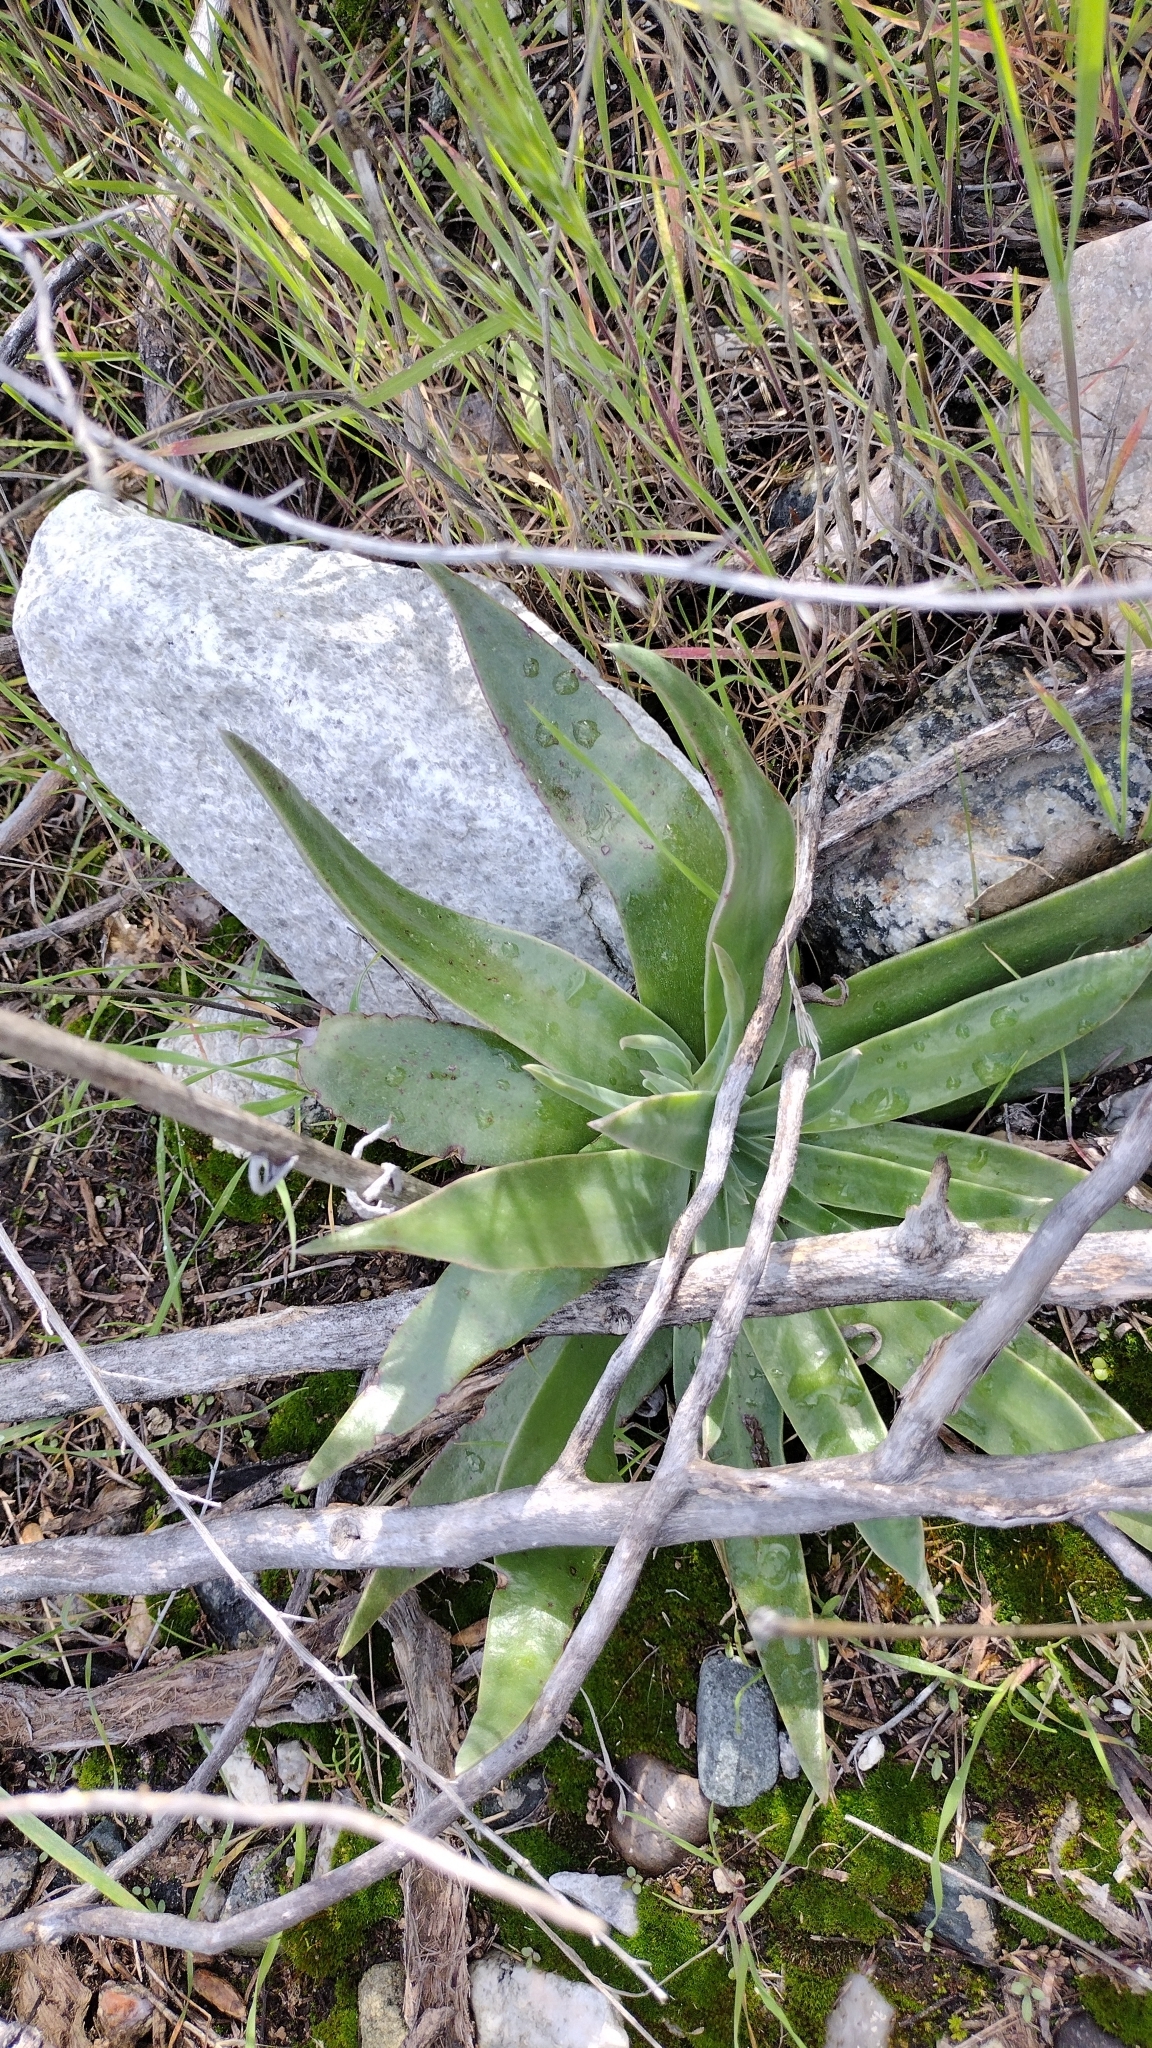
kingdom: Plantae
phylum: Tracheophyta
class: Magnoliopsida
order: Saxifragales
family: Crassulaceae
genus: Dudleya
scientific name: Dudleya lanceolata
